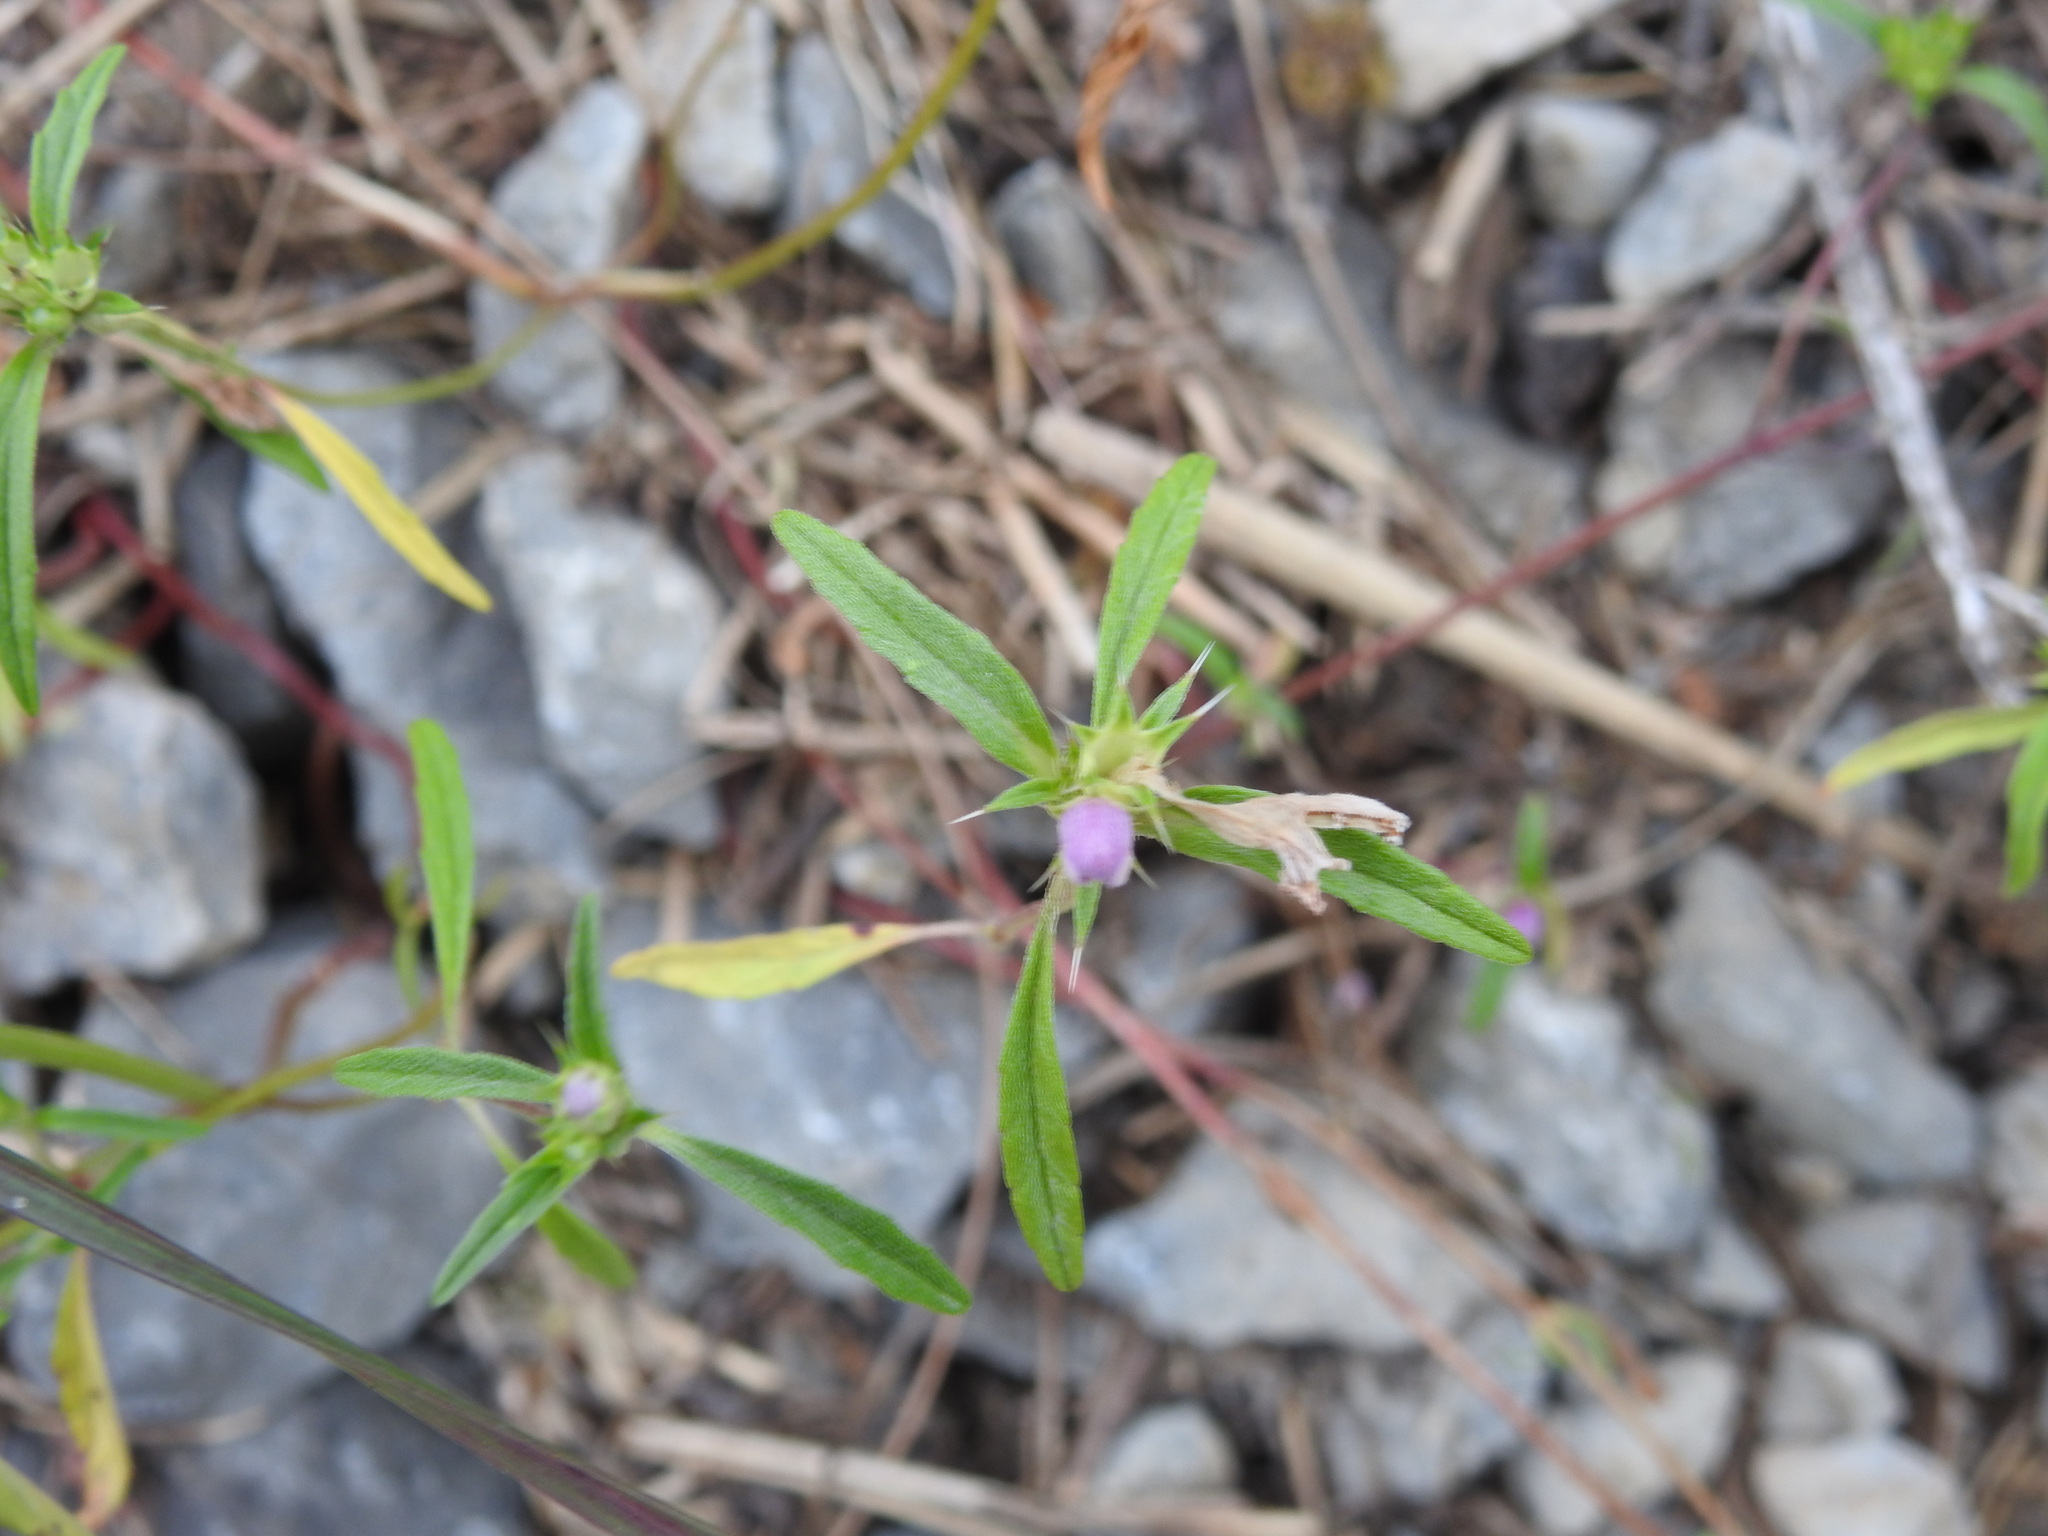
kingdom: Plantae
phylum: Tracheophyta
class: Magnoliopsida
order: Lamiales
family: Lamiaceae
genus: Galeopsis
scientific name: Galeopsis angustifolia
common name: Red hemp-nettle
